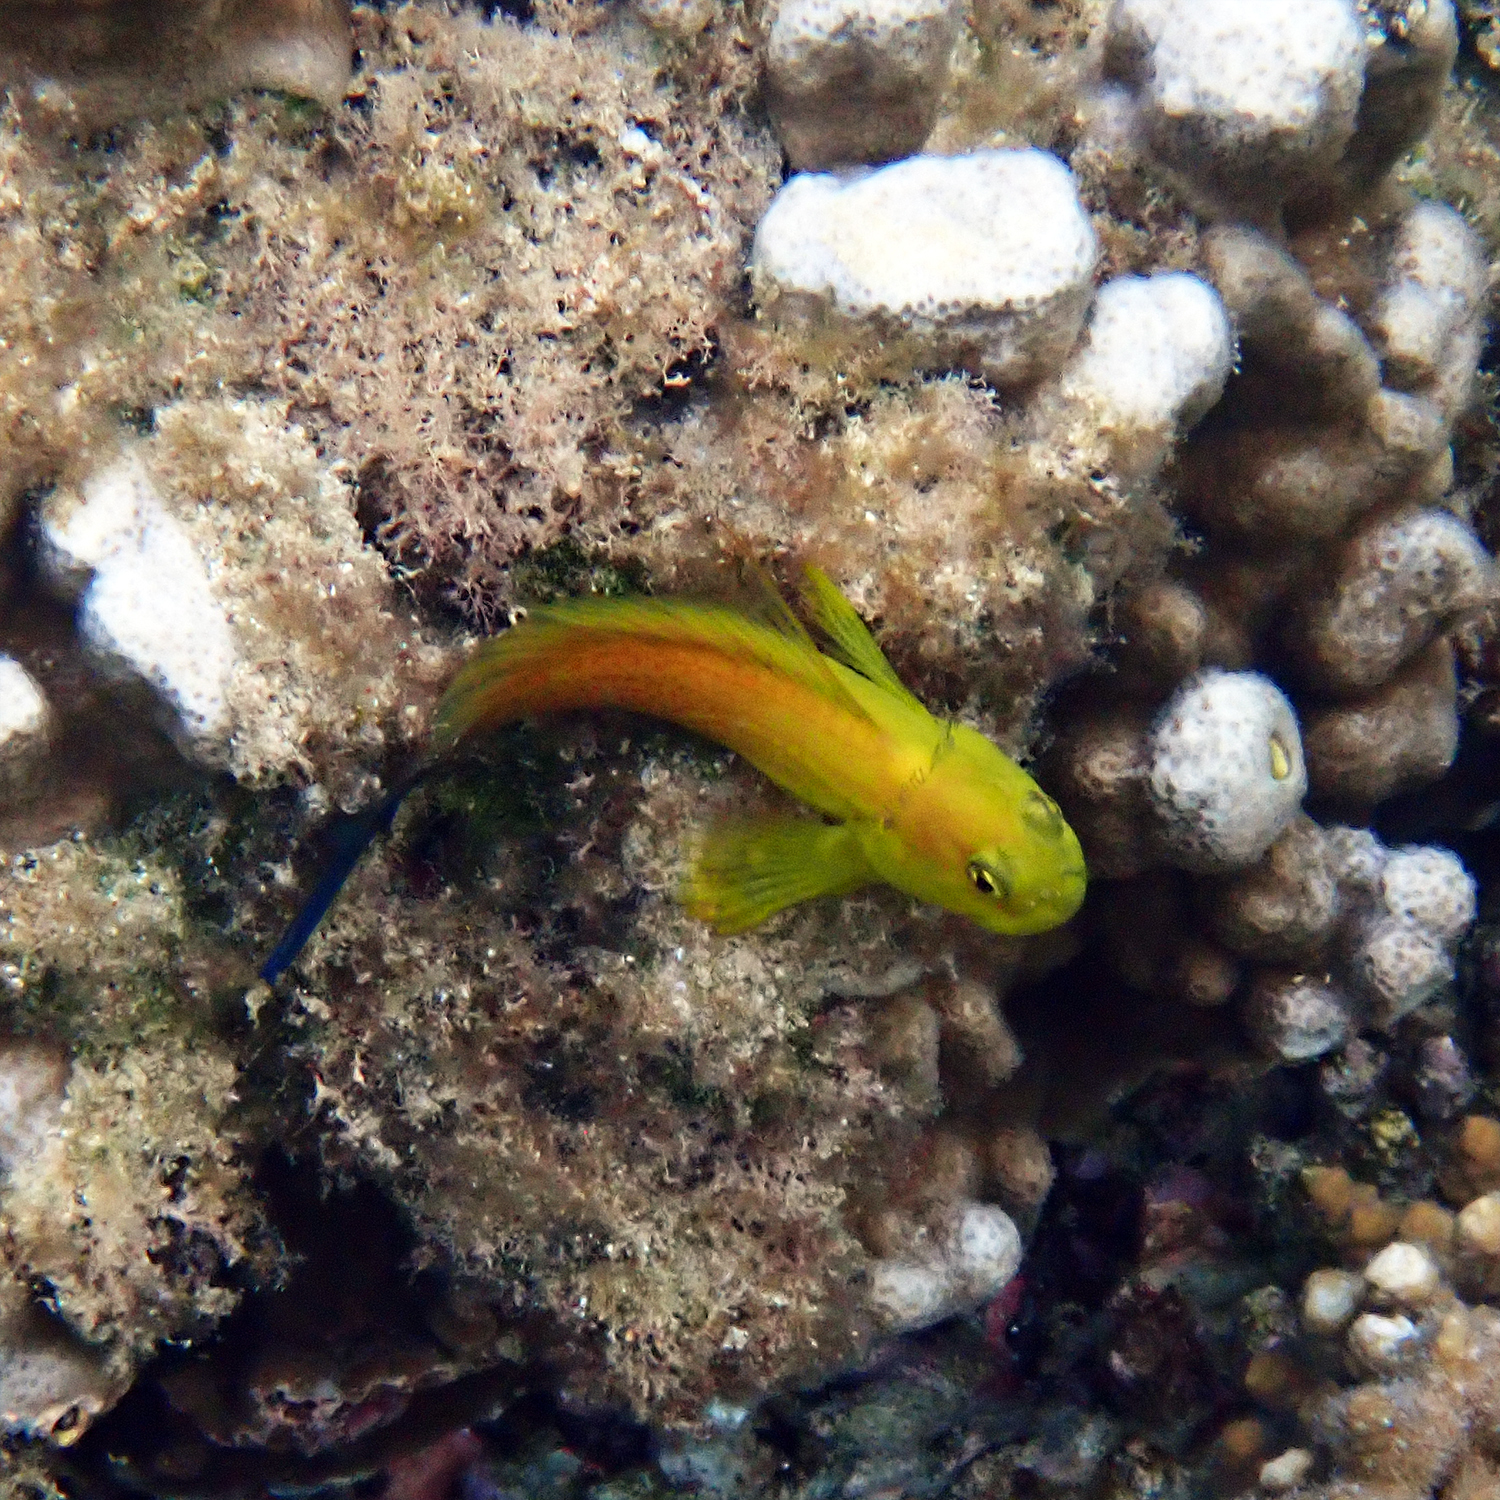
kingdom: Animalia
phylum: Chordata
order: Perciformes
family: Blenniidae
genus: Cirripectes
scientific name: Cirripectes chelomatus
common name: Lady musgrave blenny
